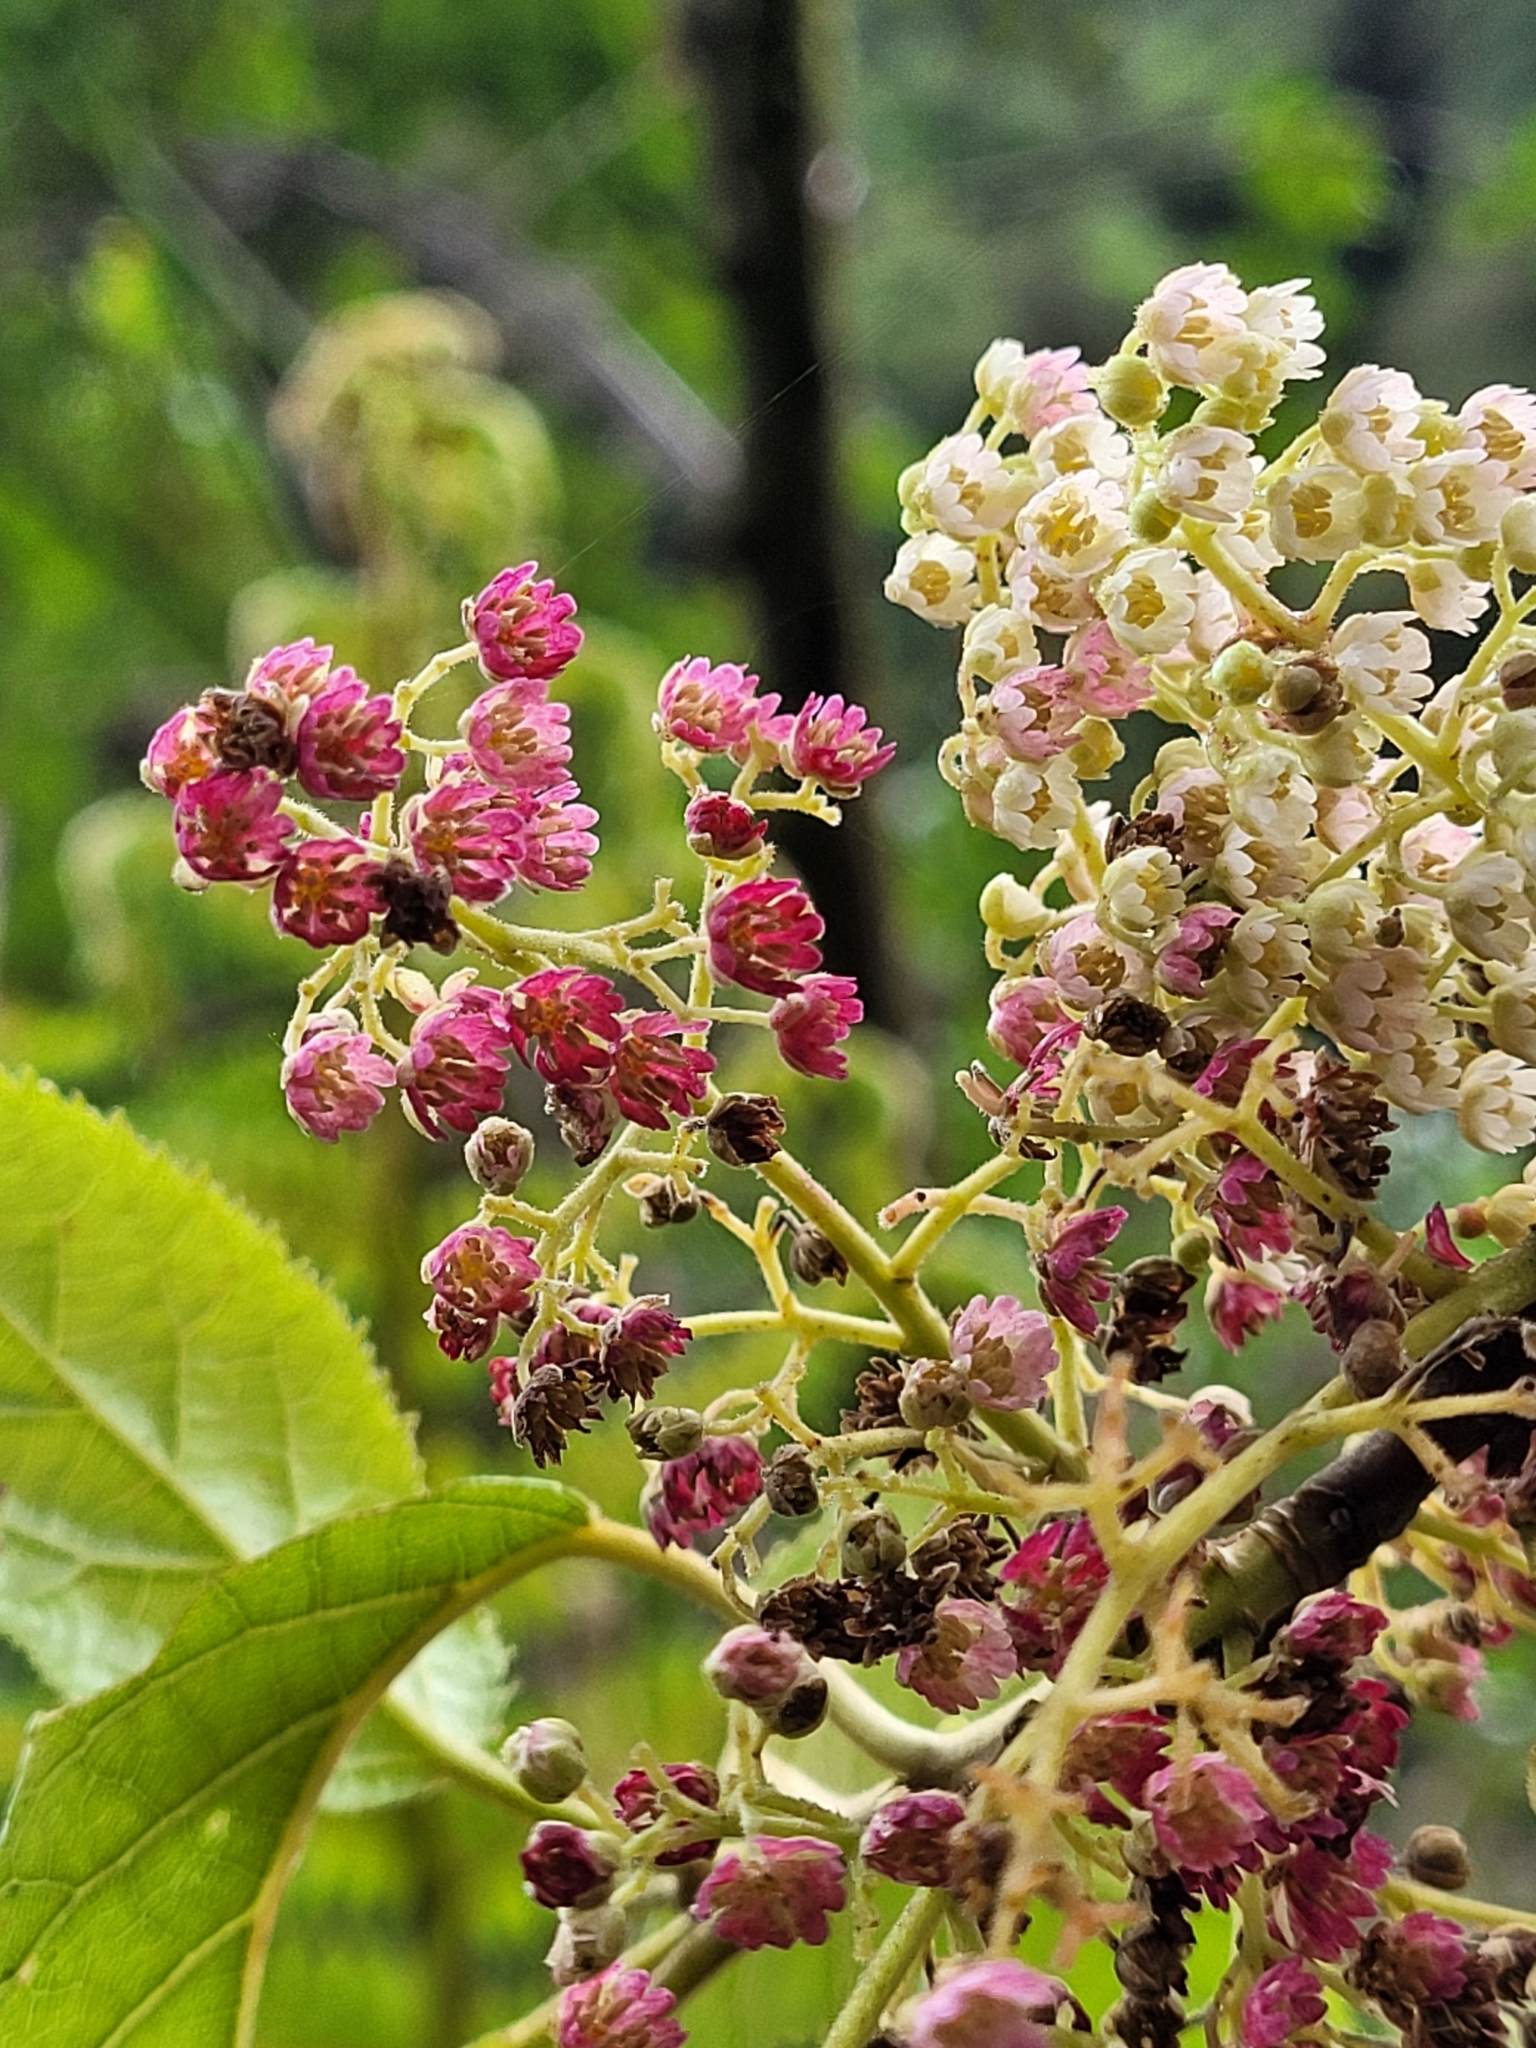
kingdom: Plantae
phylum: Tracheophyta
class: Magnoliopsida
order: Oxalidales
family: Elaeocarpaceae
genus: Aristotelia
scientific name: Aristotelia serrata
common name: New zealand wineberry
